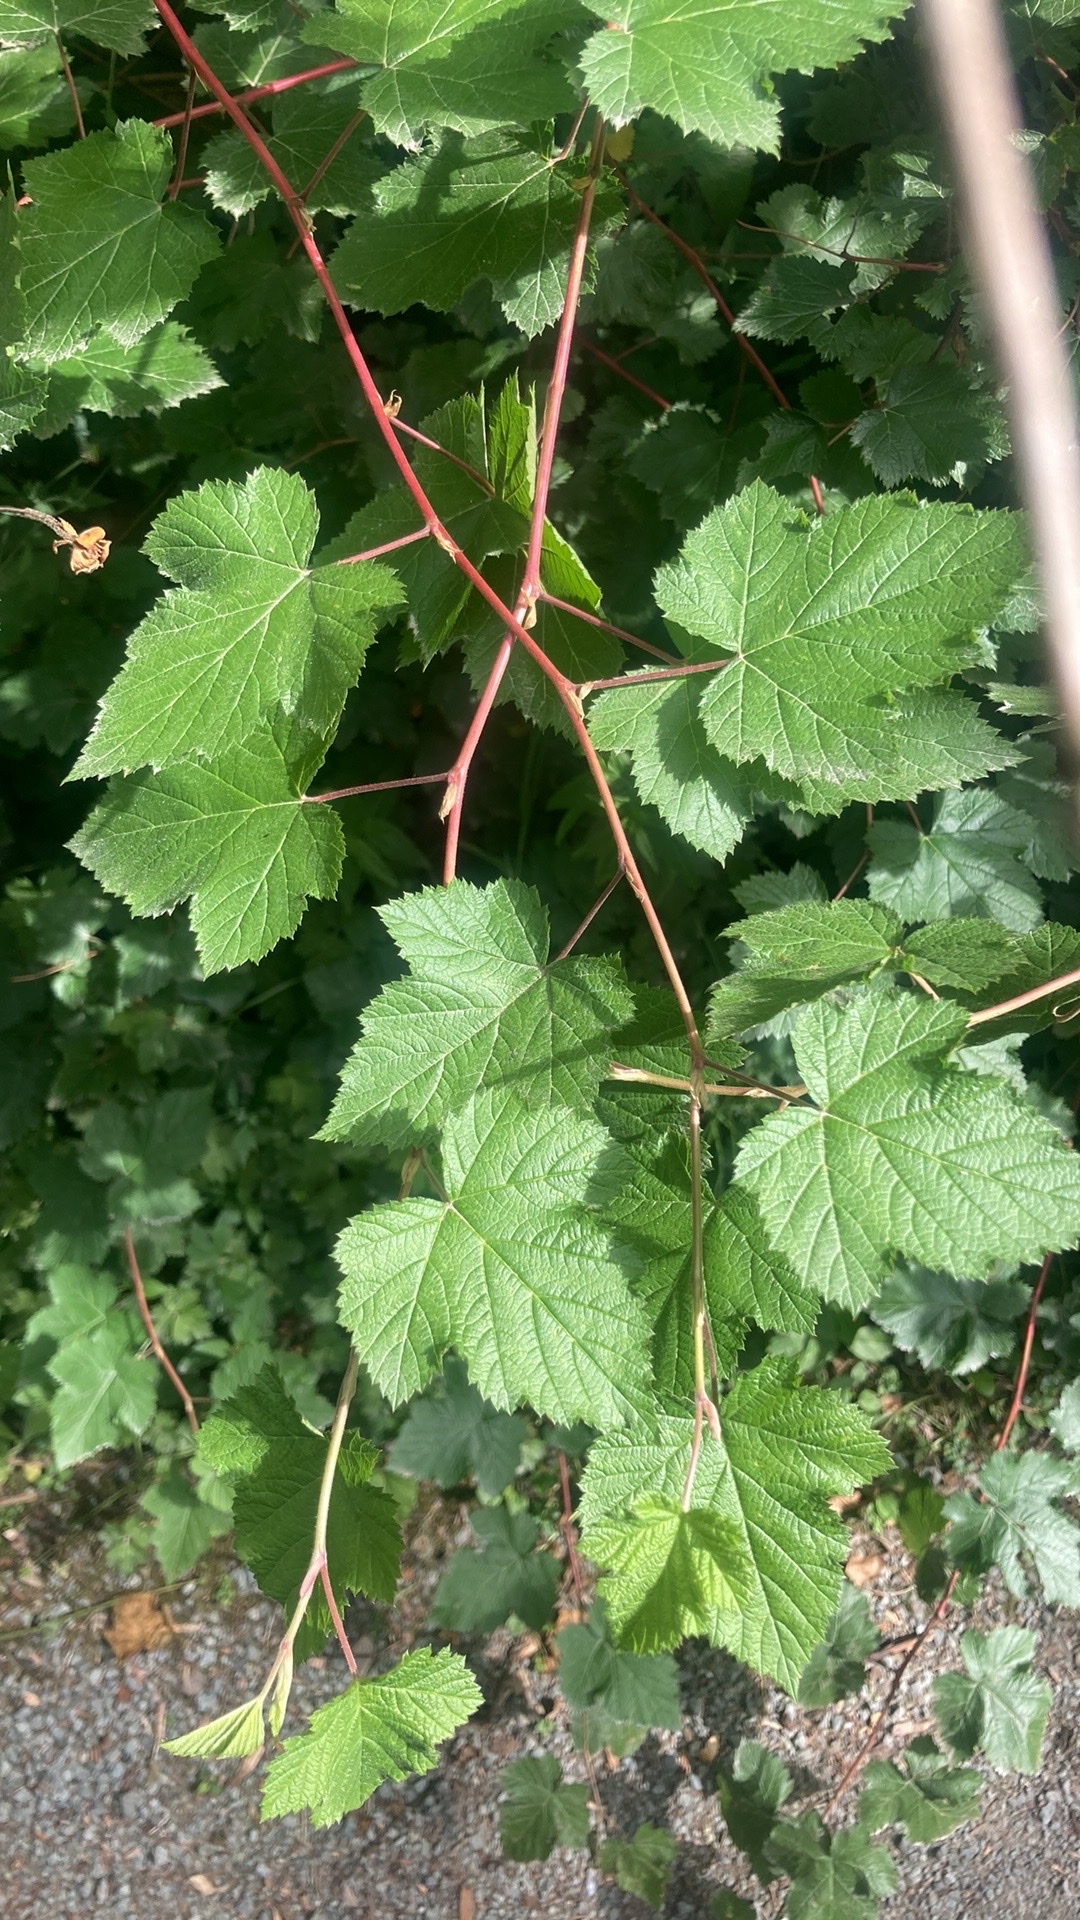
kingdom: Plantae
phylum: Tracheophyta
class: Magnoliopsida
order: Rosales
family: Rosaceae
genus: Physocarpus
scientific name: Physocarpus capitatus
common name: Pacific ninebark
